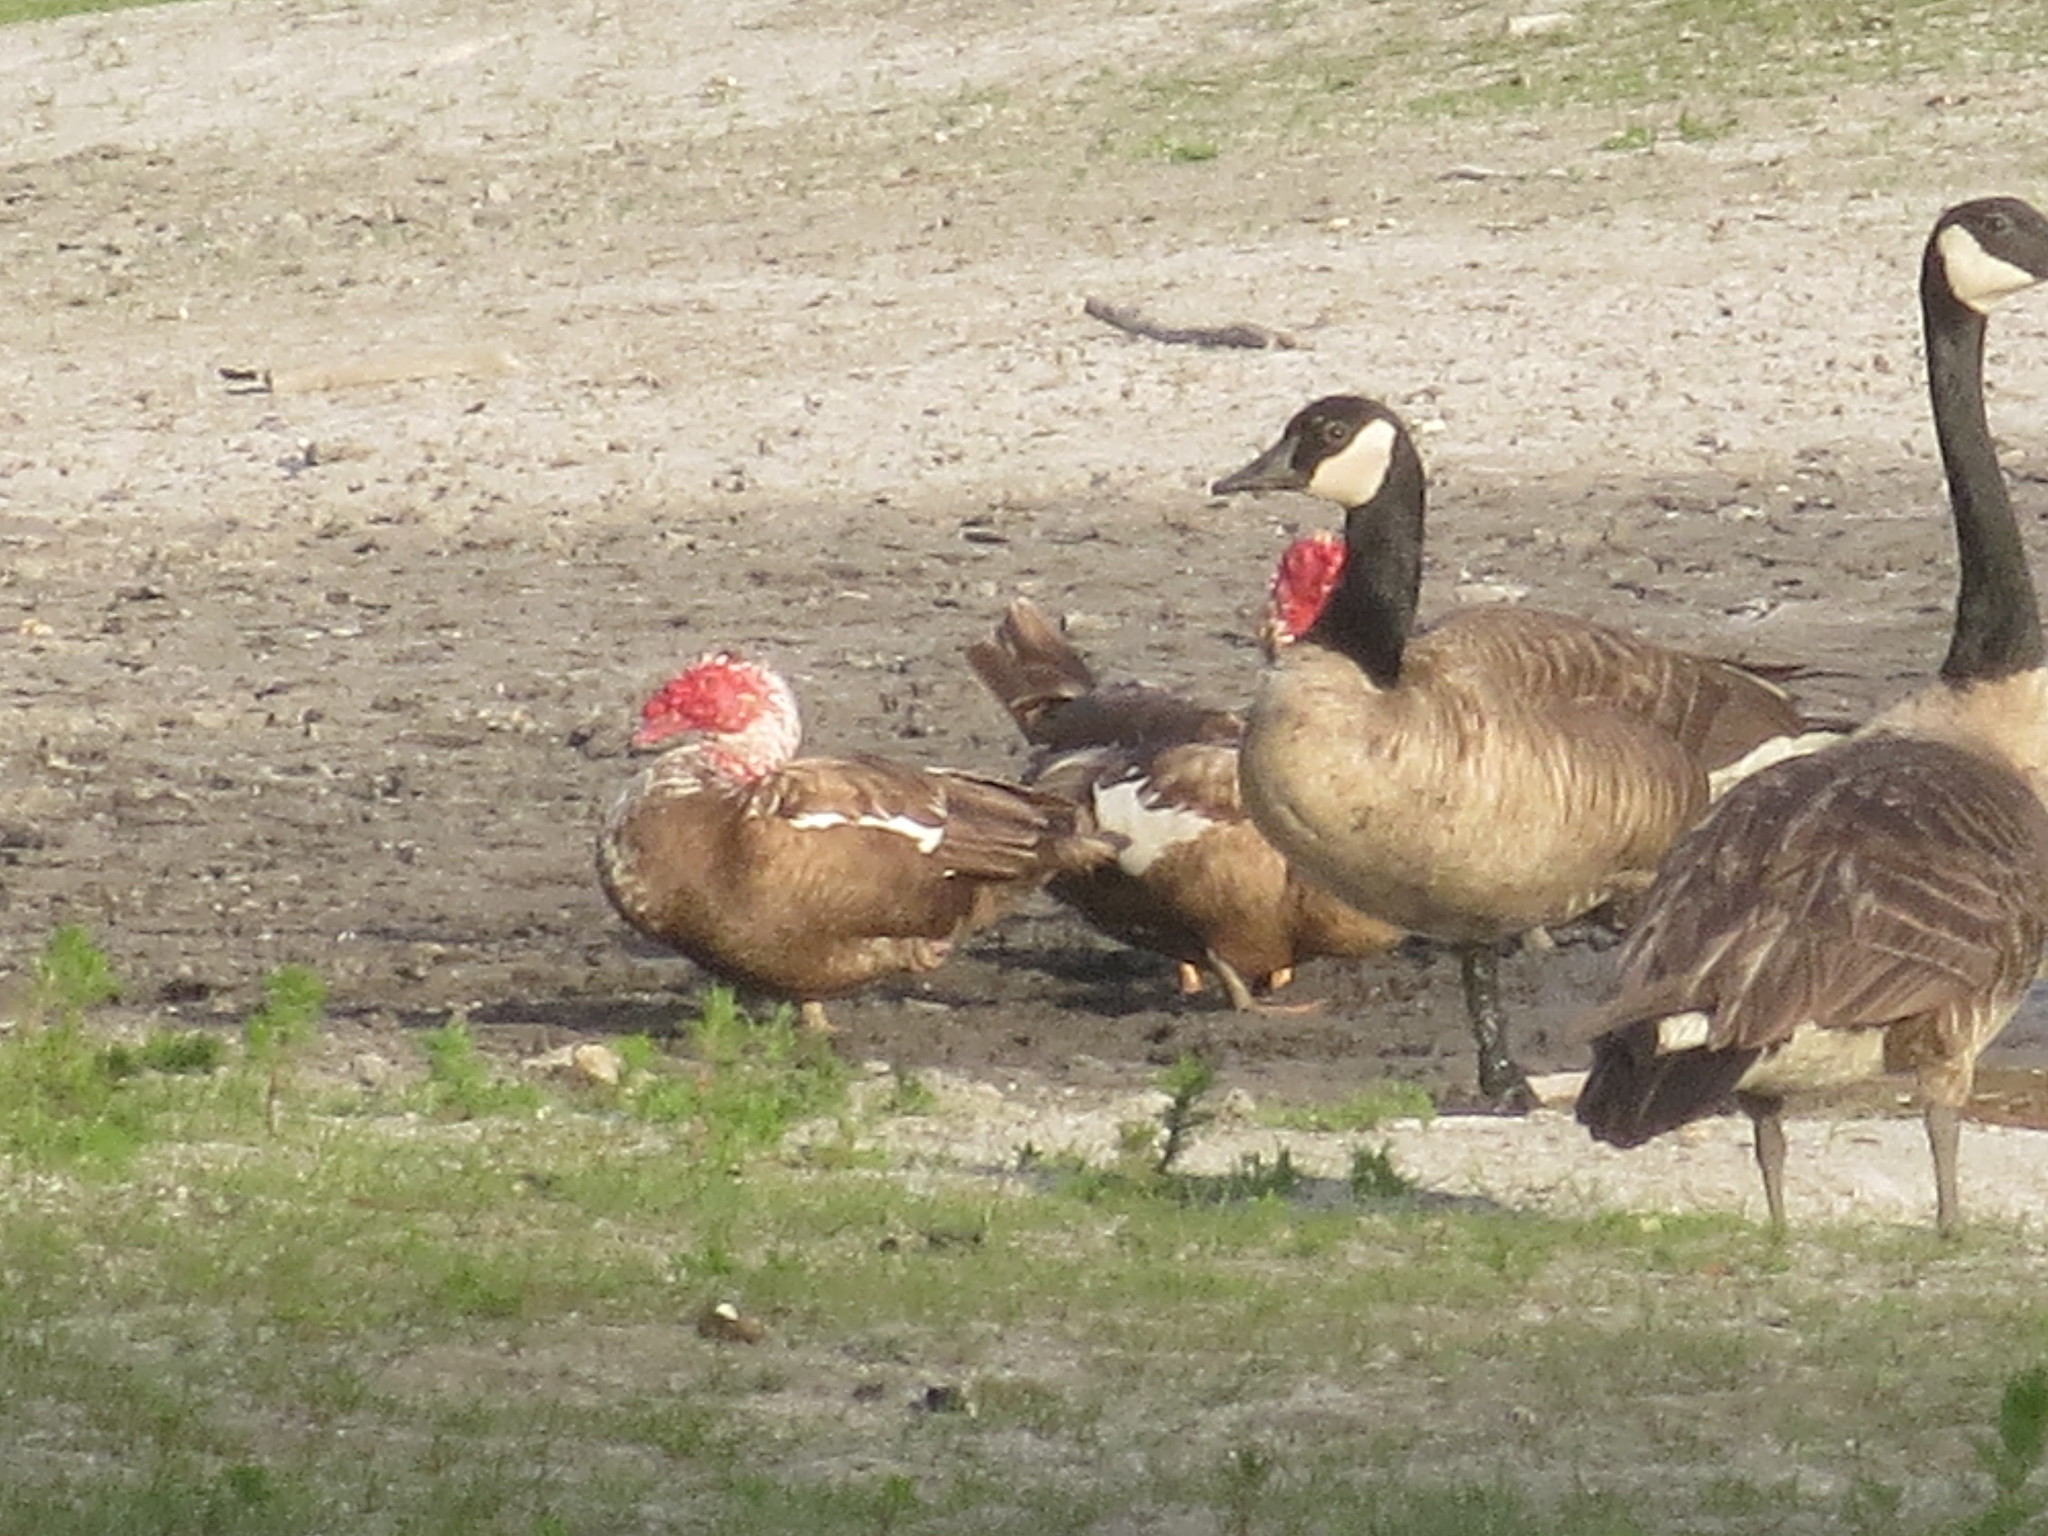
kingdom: Animalia
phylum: Chordata
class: Aves
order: Anseriformes
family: Anatidae
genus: Branta
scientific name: Branta canadensis
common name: Canada goose
